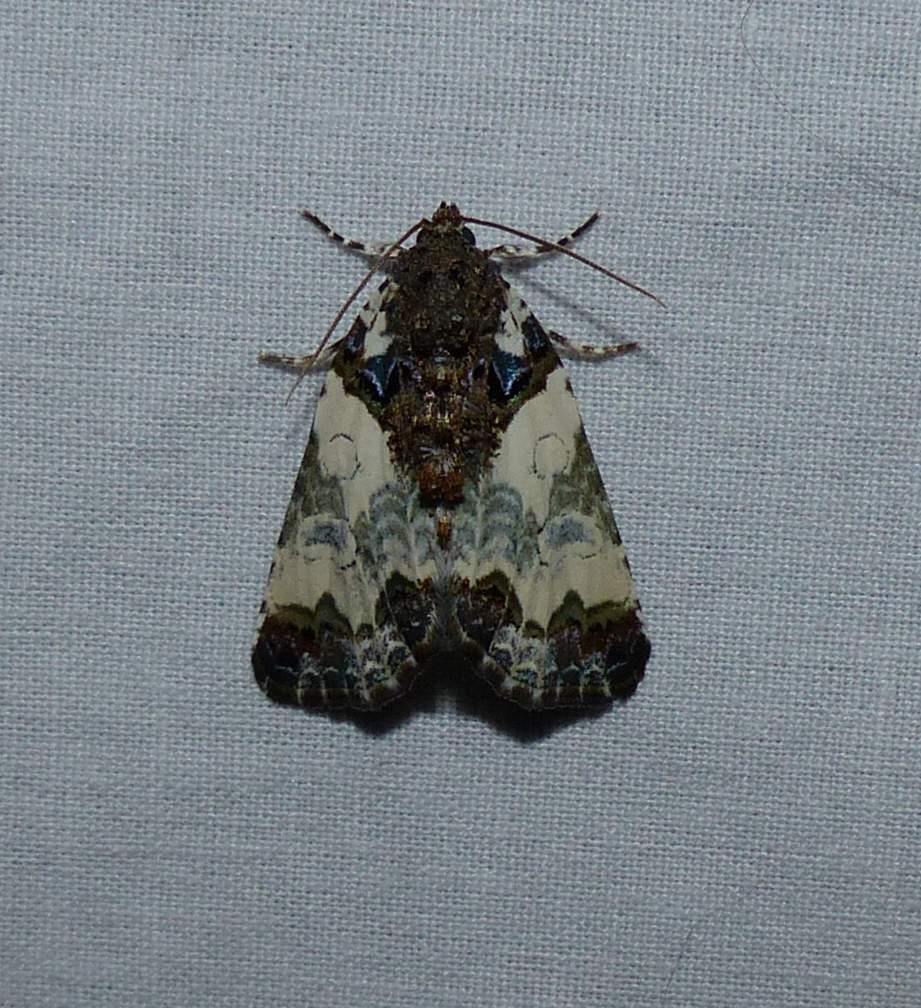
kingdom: Animalia
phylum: Arthropoda
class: Insecta
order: Lepidoptera
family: Noctuidae
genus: Cerma
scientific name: Cerma cerintha
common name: Tufted bird-dropping moth
